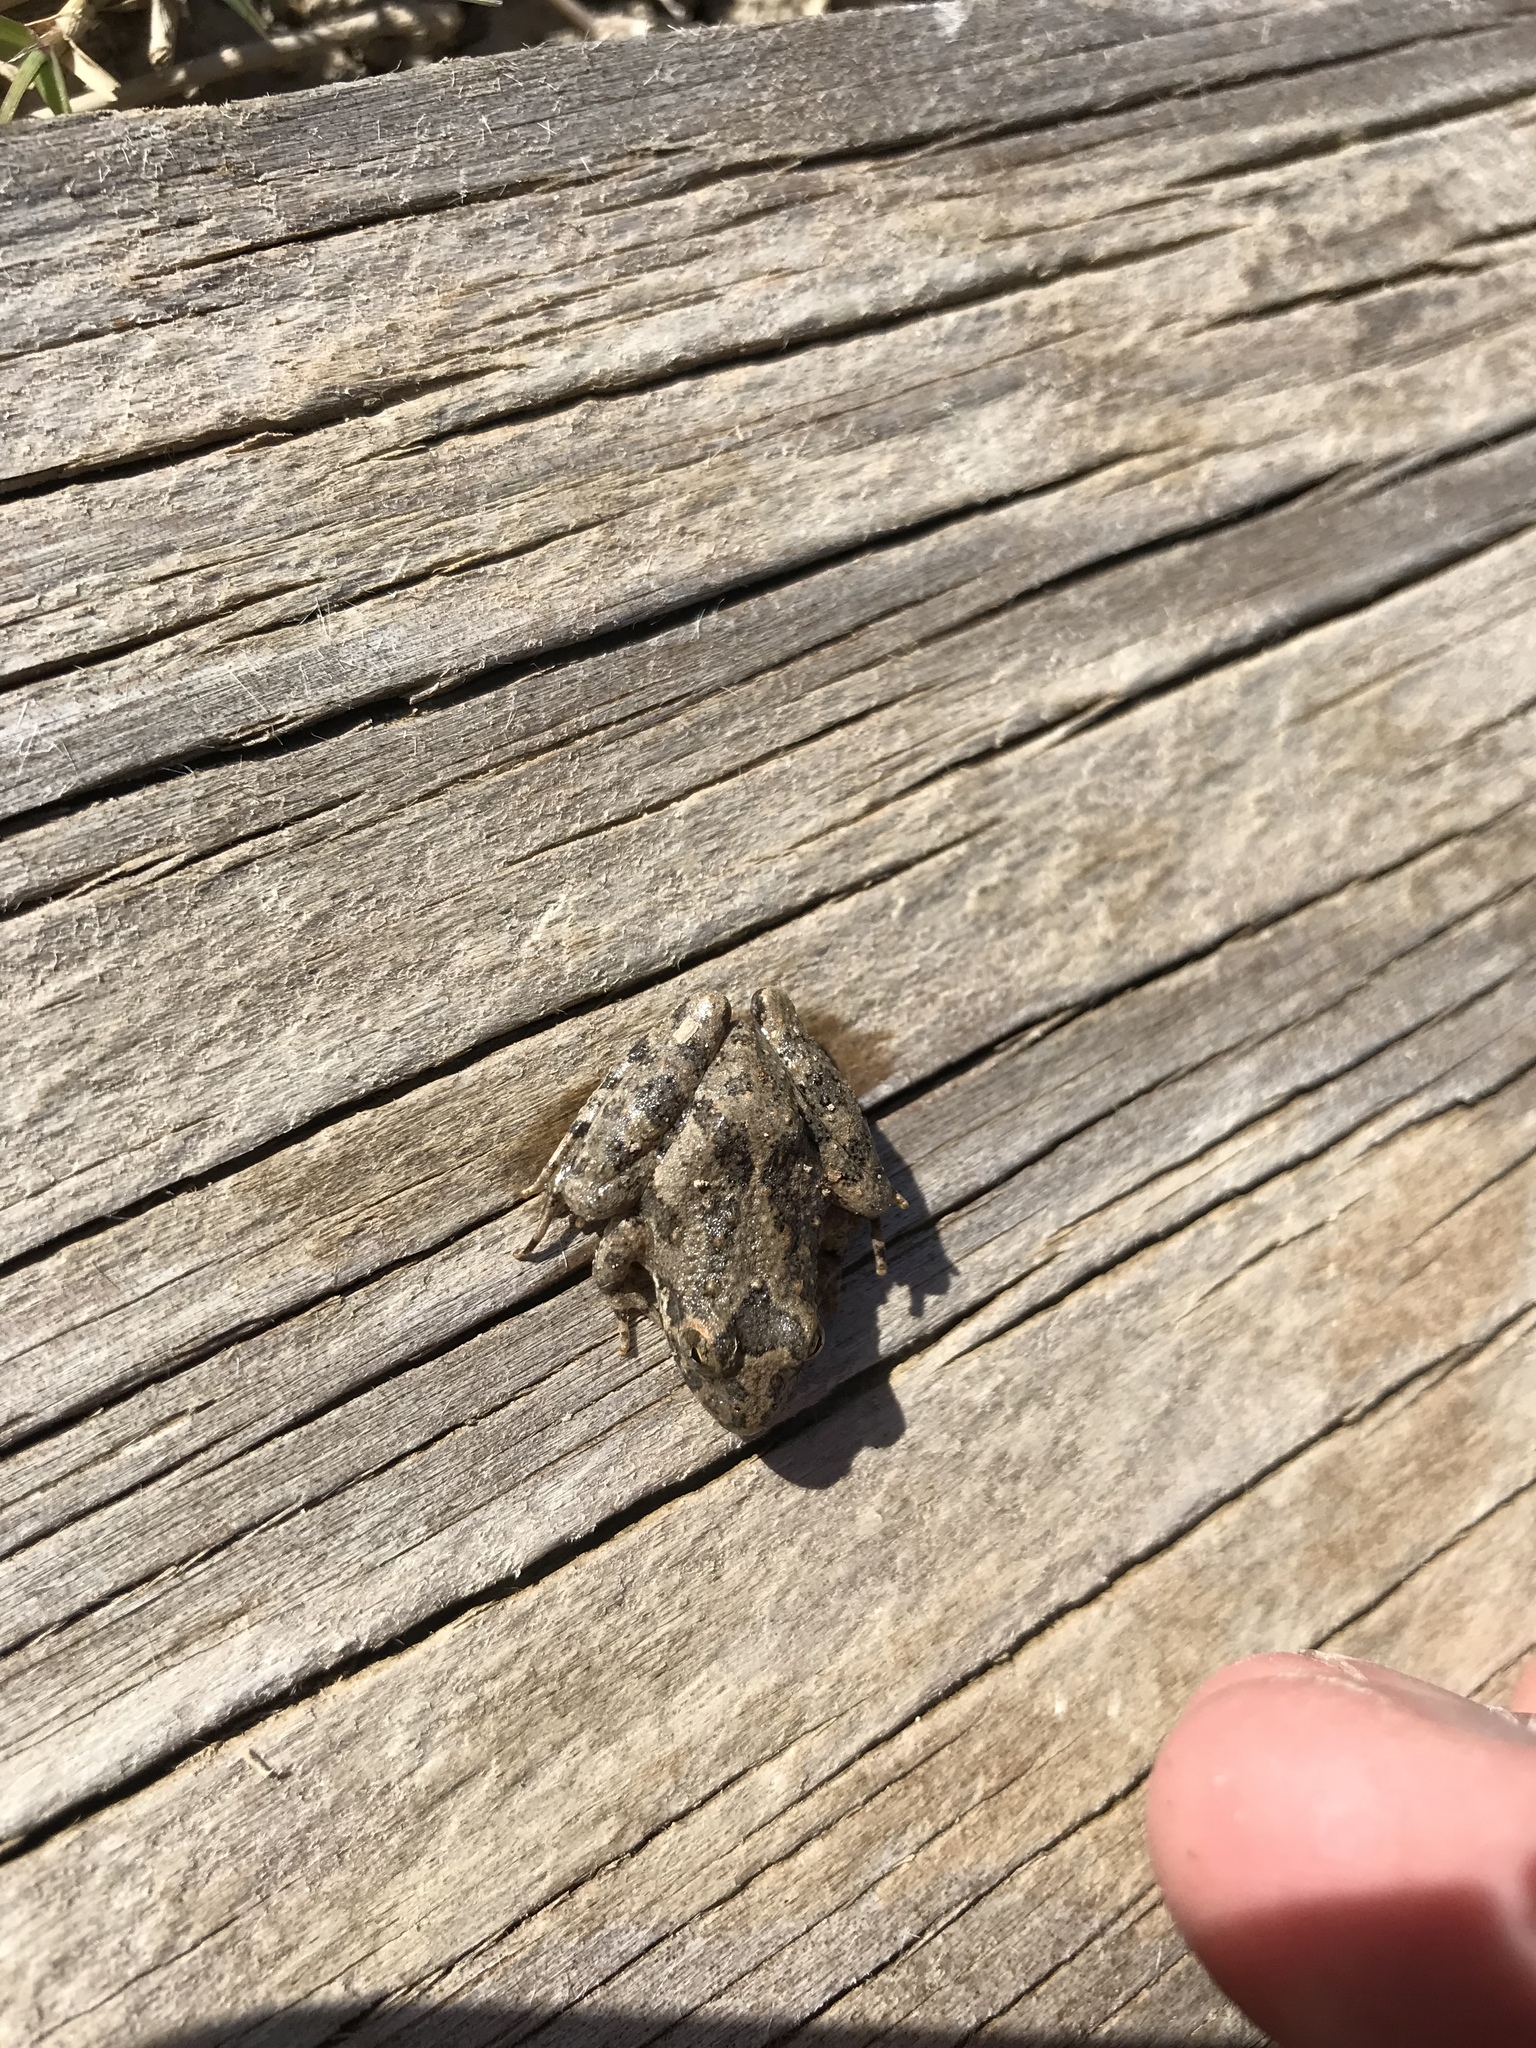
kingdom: Animalia
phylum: Chordata
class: Amphibia
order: Anura
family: Hylidae
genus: Acris
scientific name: Acris blanchardi
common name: Blanchard's cricket frog
